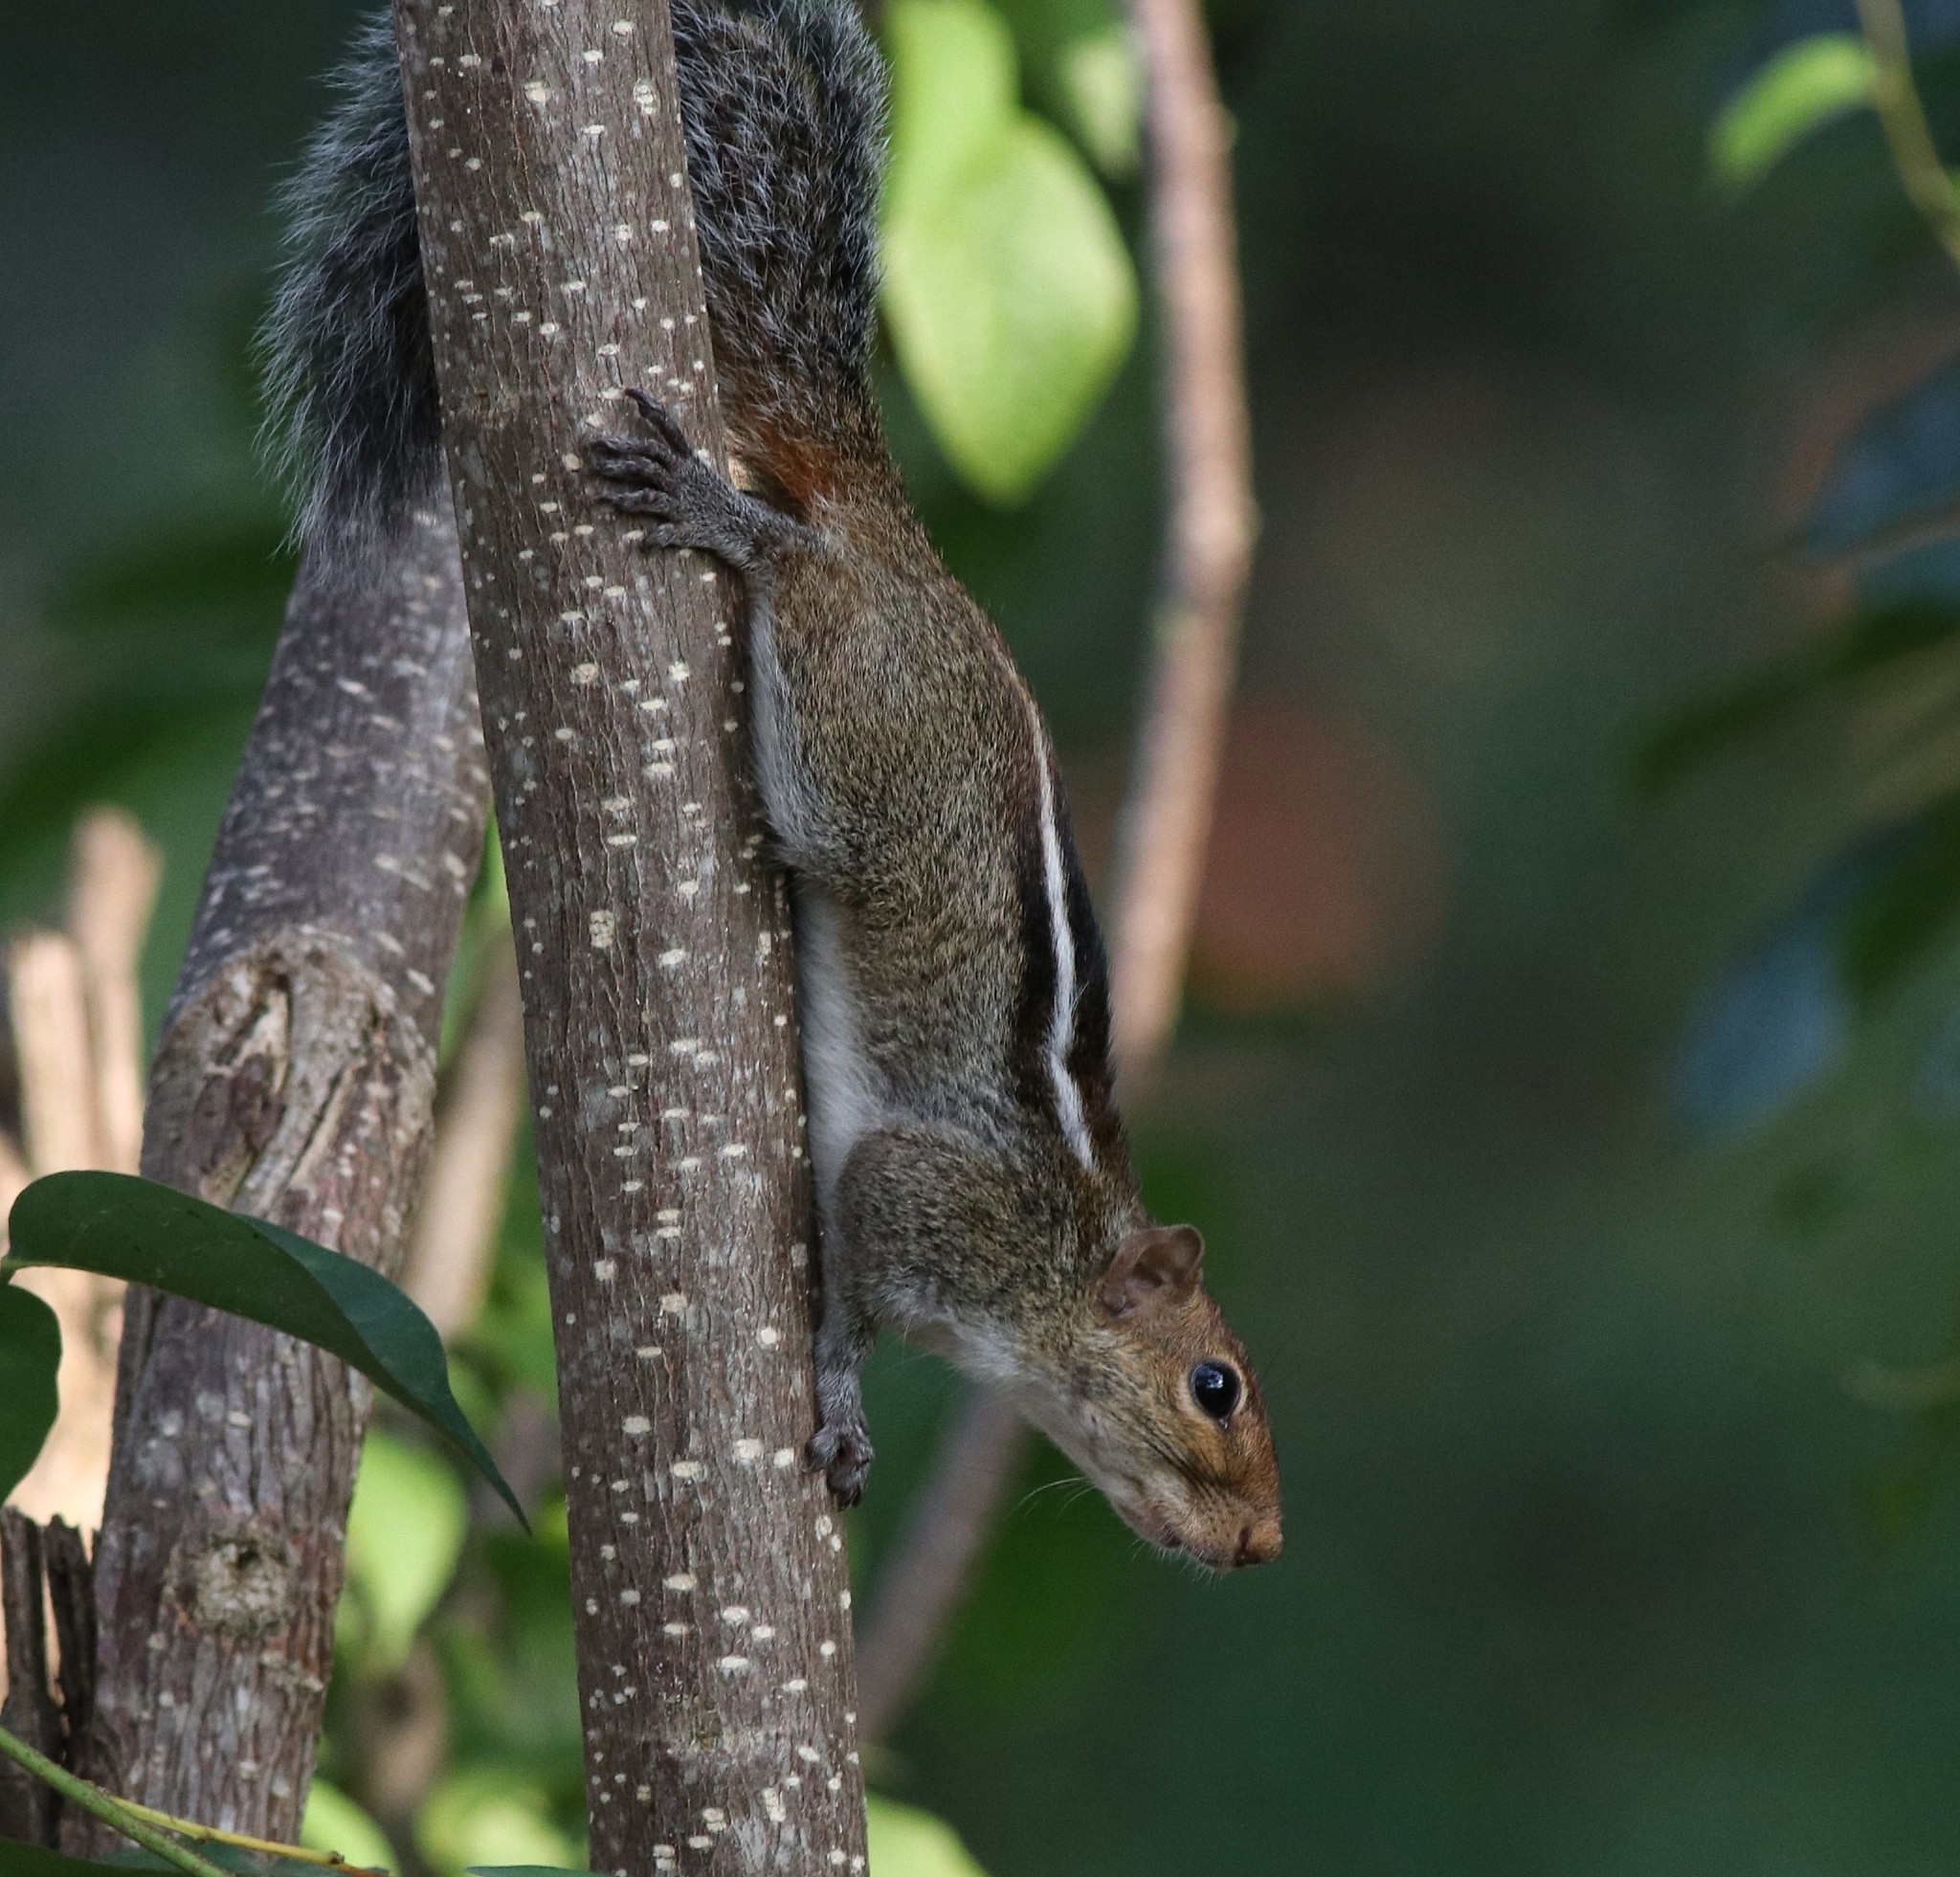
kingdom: Animalia
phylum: Chordata
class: Mammalia
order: Rodentia
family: Sciuridae
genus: Funambulus
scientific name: Funambulus tristriatus
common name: Jungle palm squirrel
